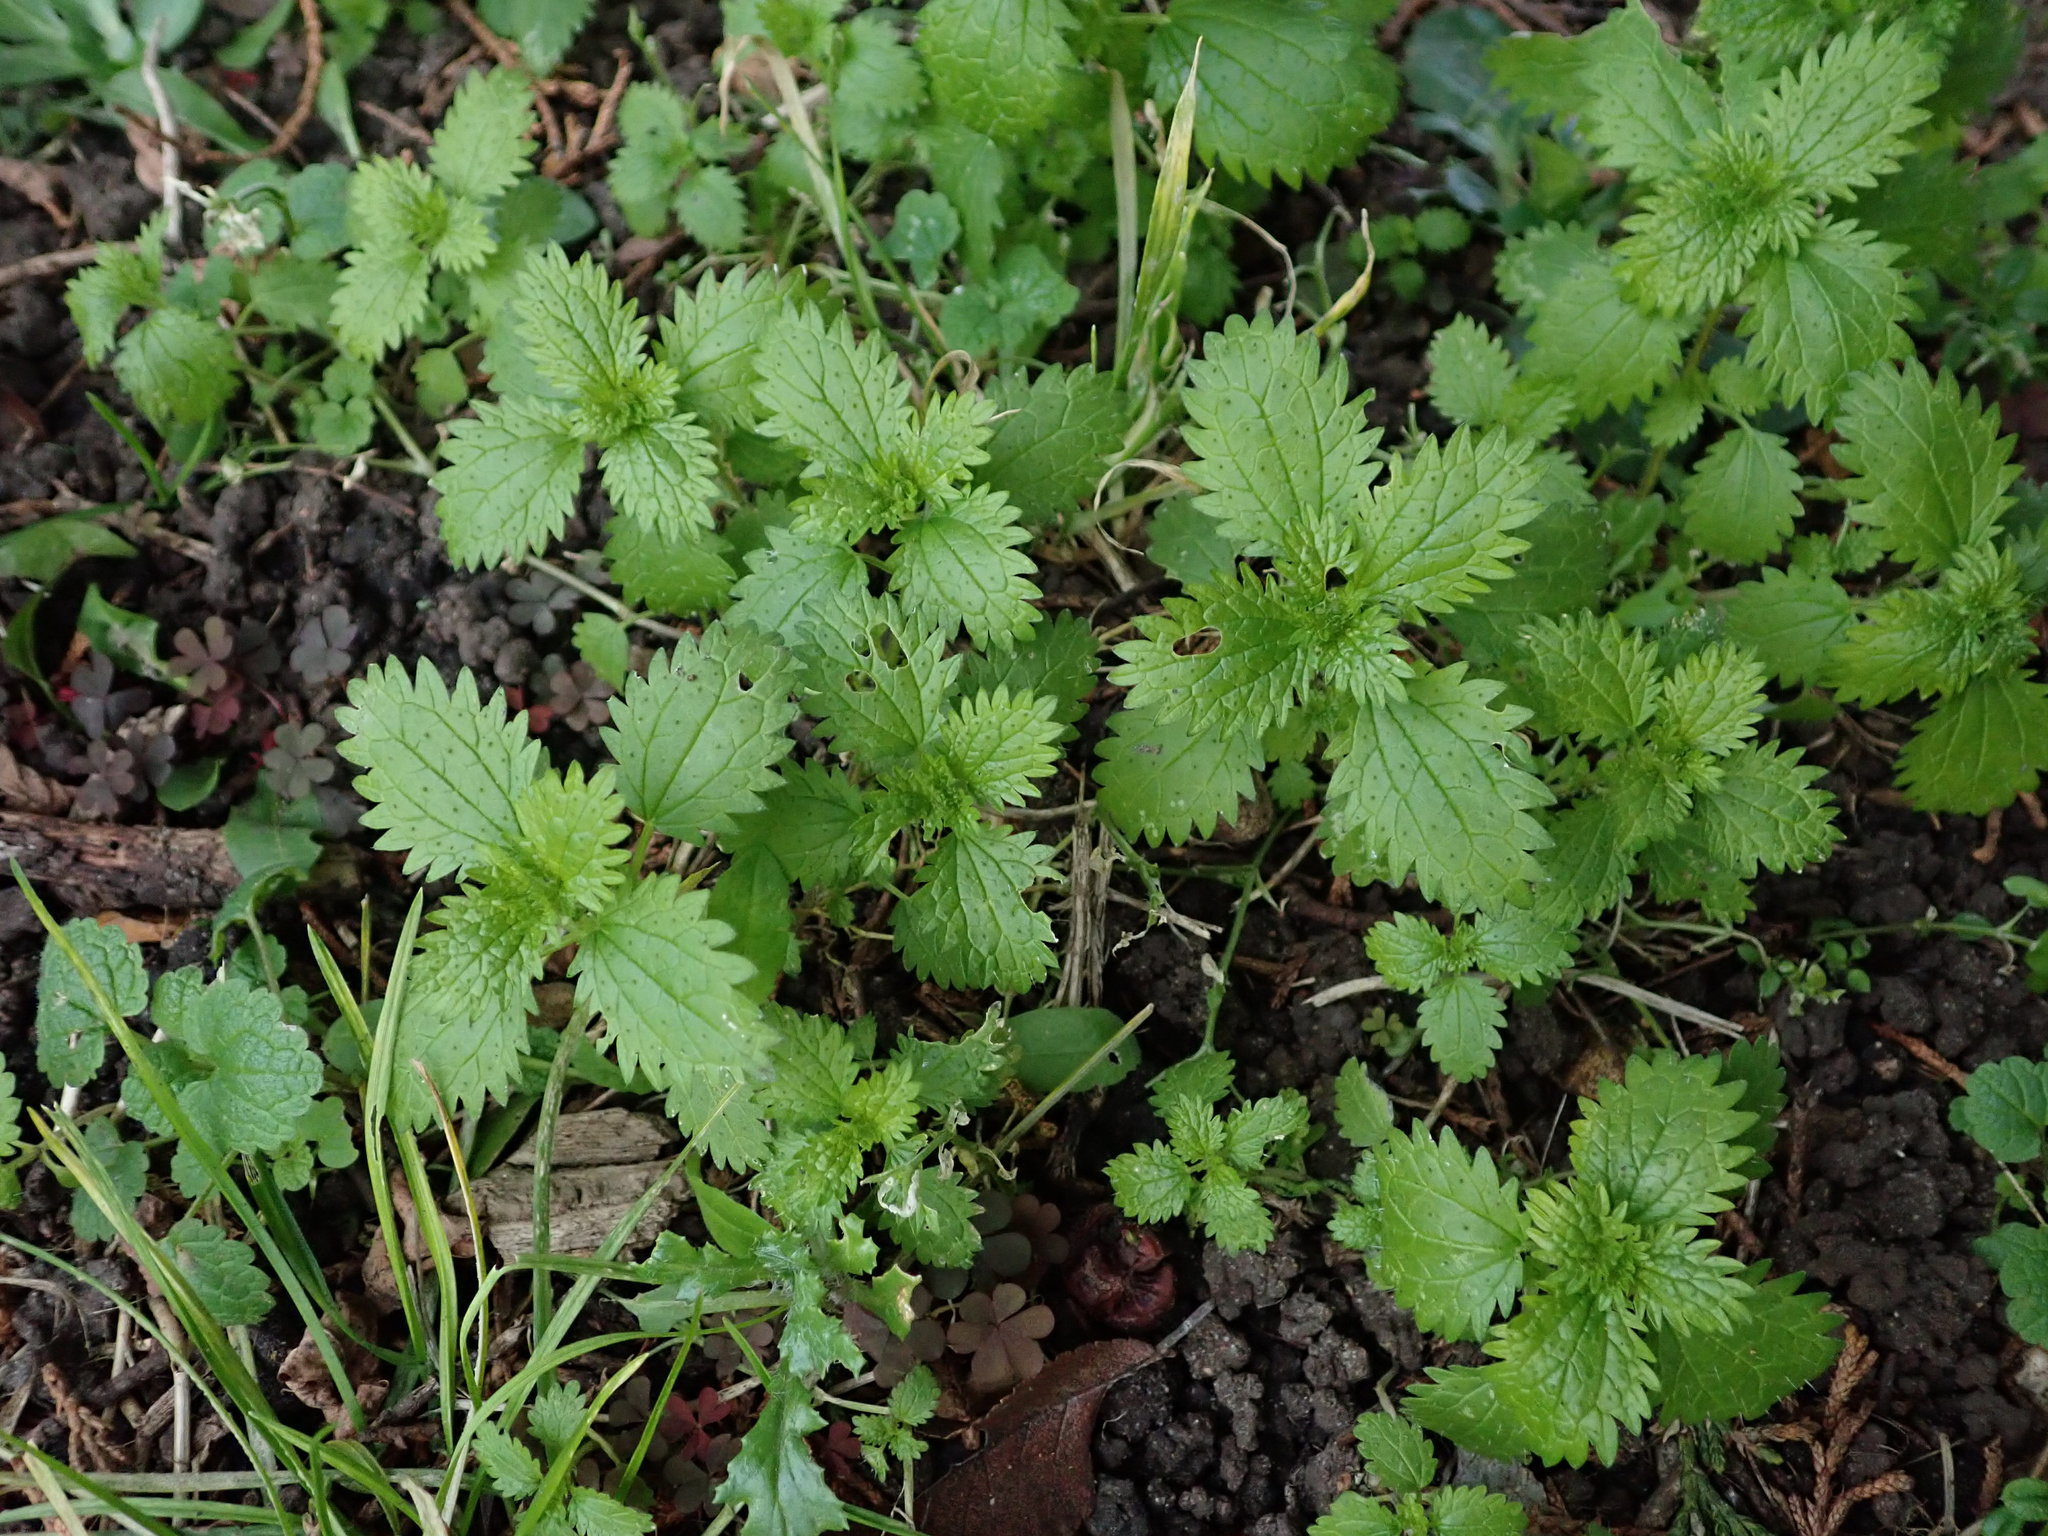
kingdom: Plantae
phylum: Tracheophyta
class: Magnoliopsida
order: Rosales
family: Urticaceae
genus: Urtica
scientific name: Urtica urens
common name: Dwarf nettle
